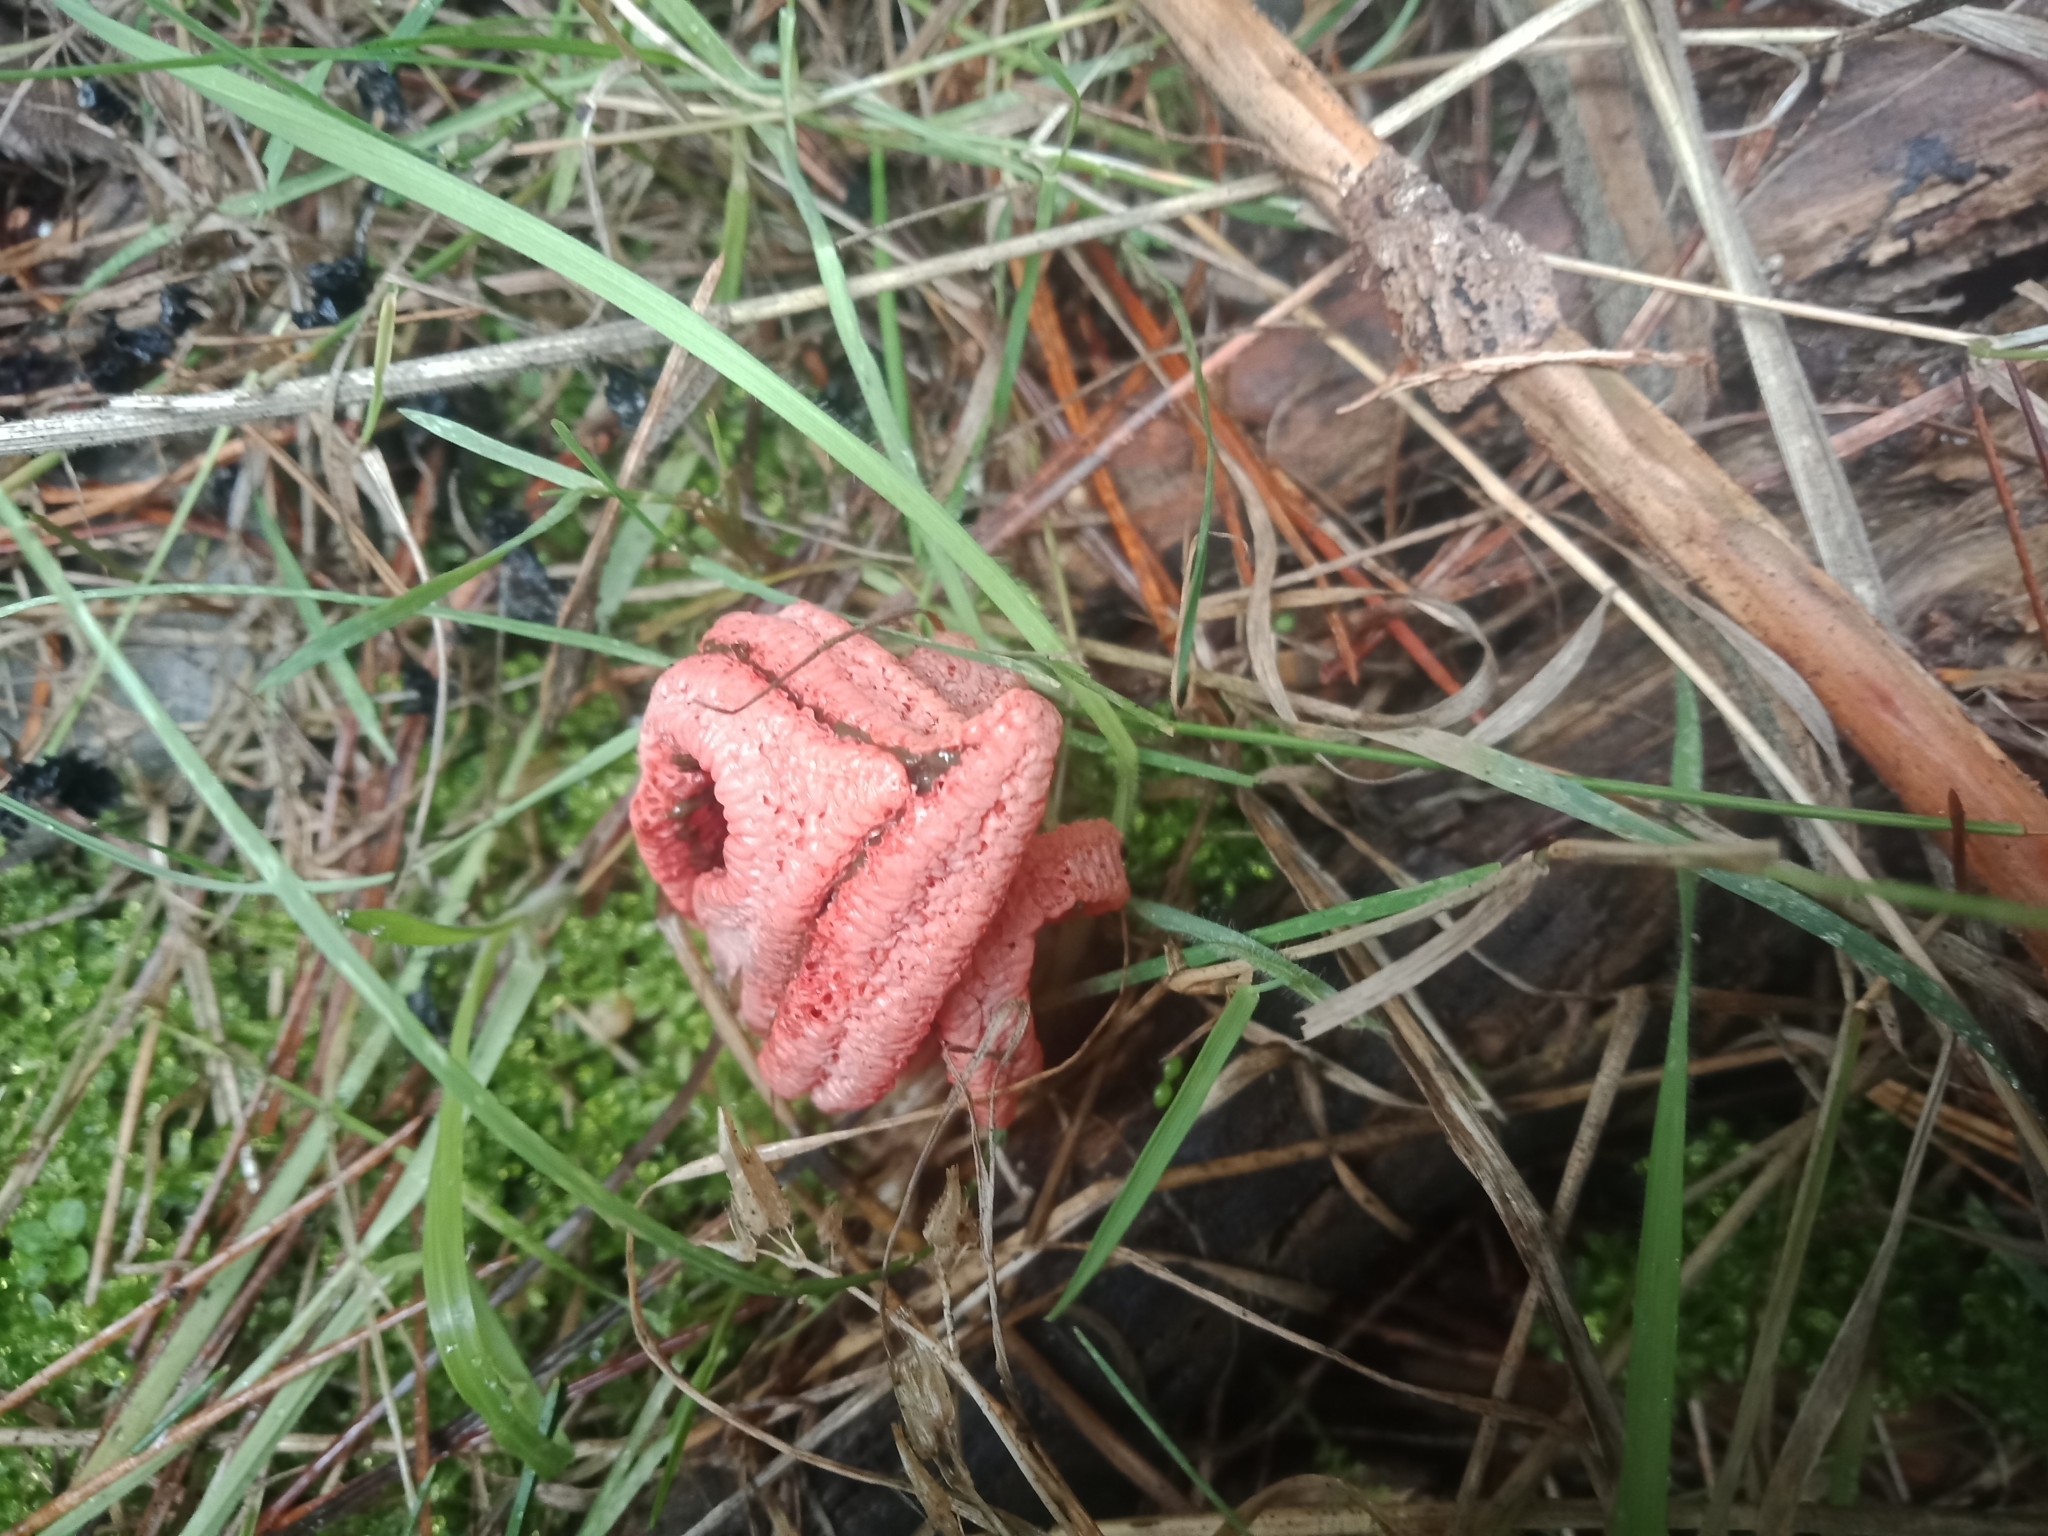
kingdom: Fungi
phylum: Basidiomycota
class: Agaricomycetes
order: Phallales
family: Phallaceae
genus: Clathrus
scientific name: Clathrus archeri
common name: Devil's fingers
